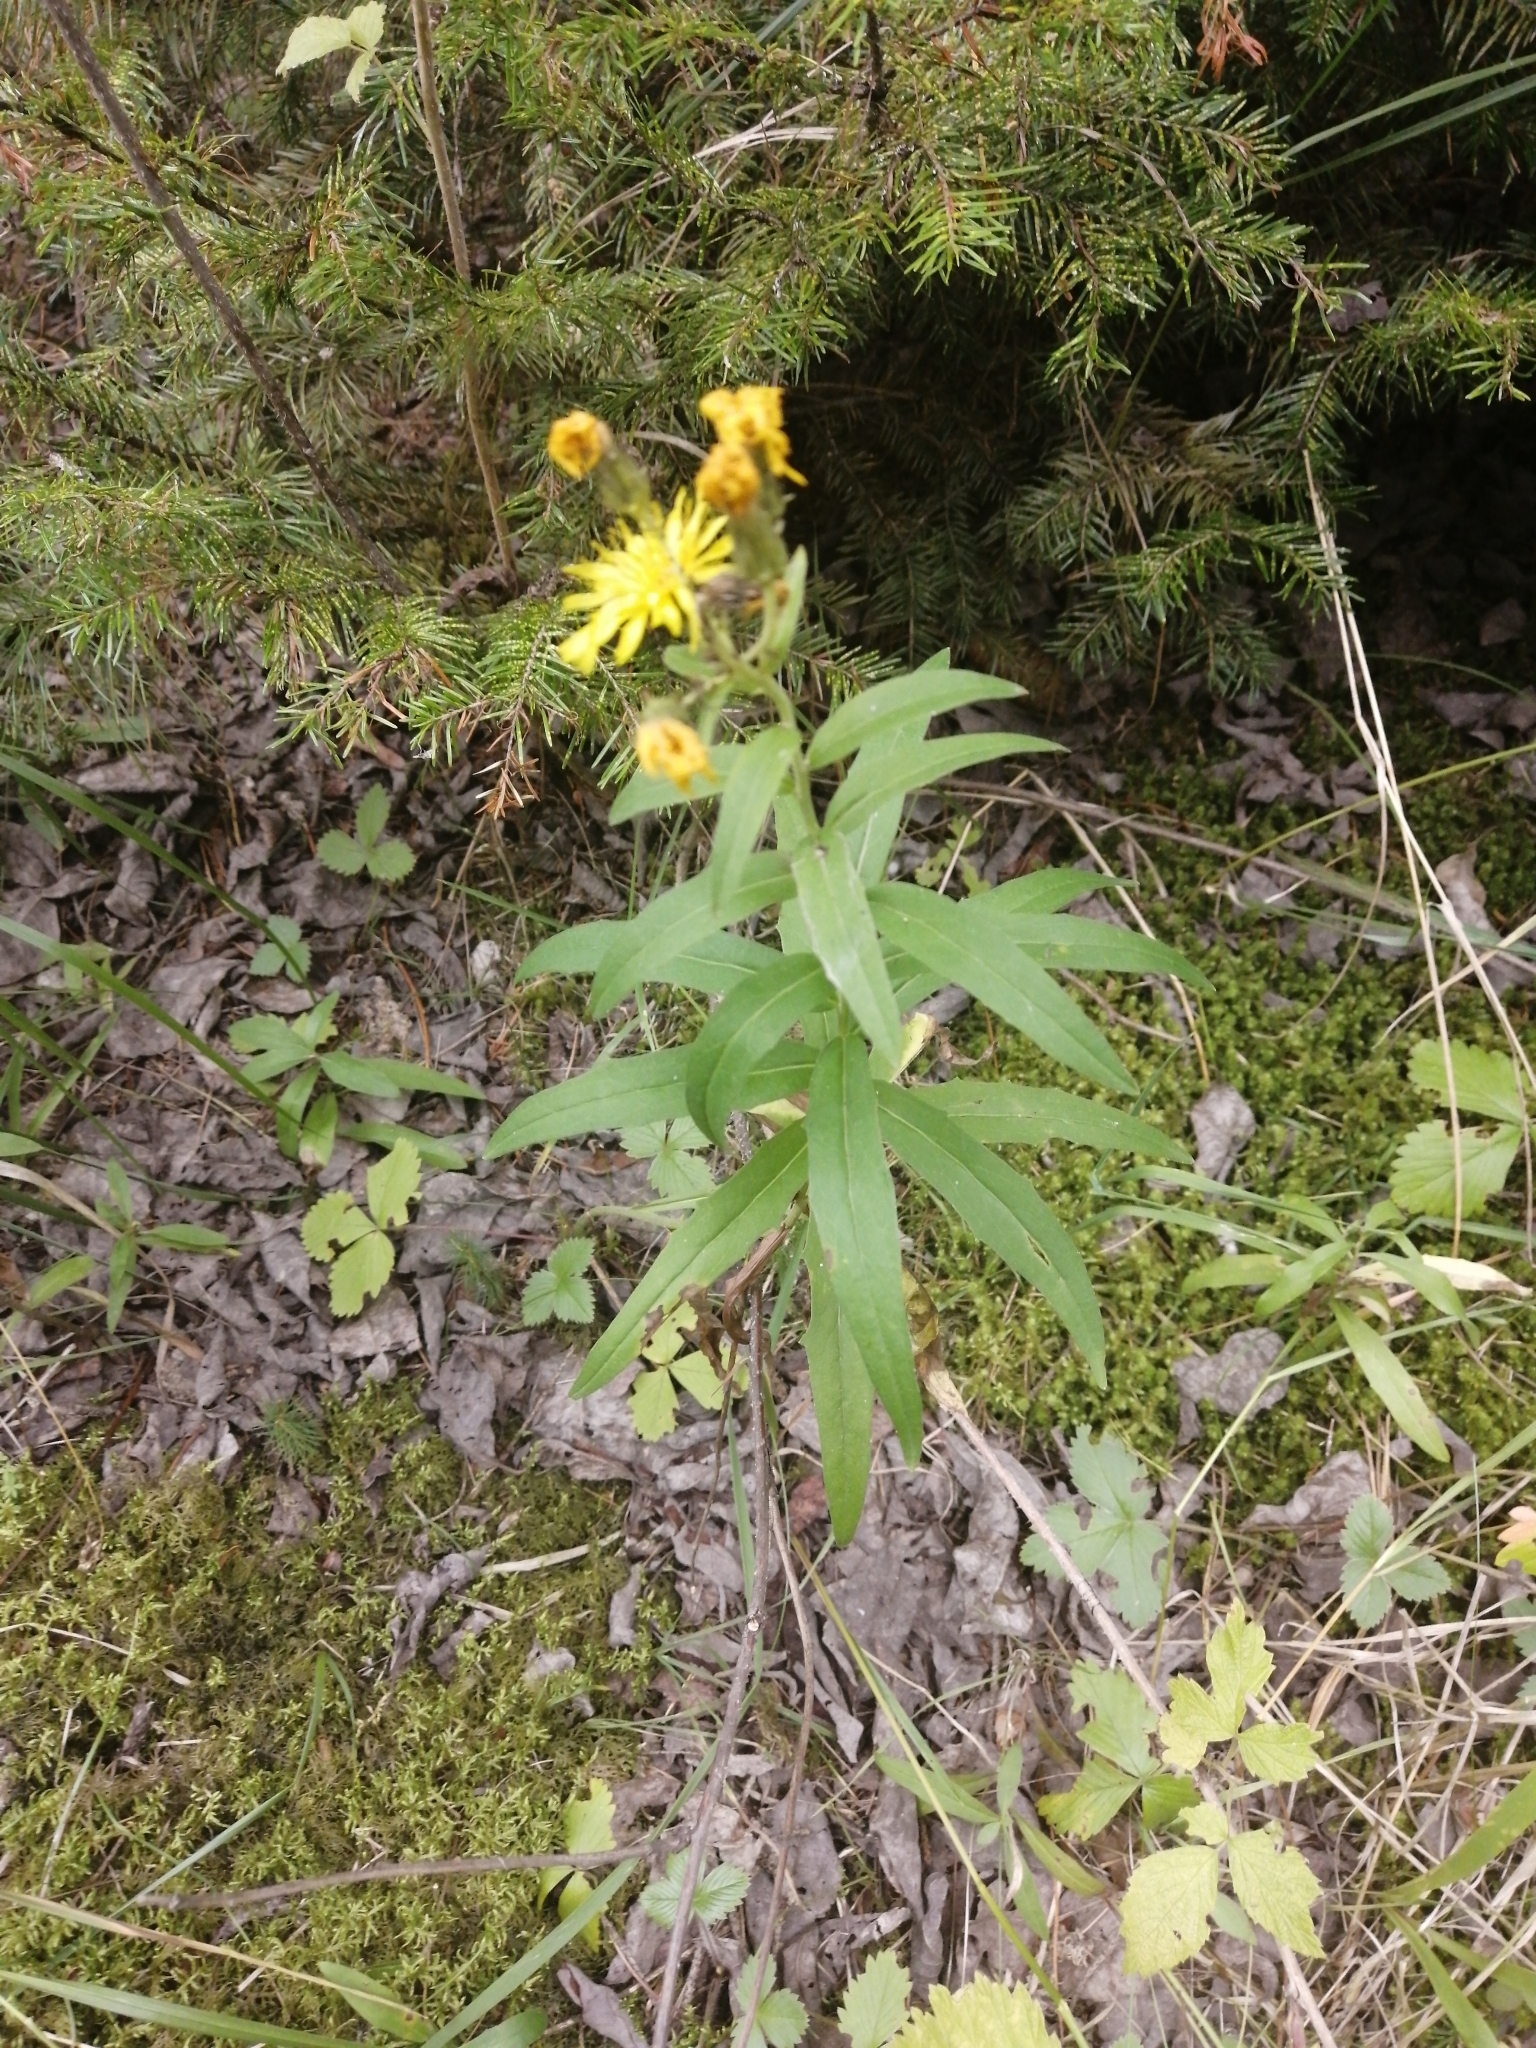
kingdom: Plantae
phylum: Tracheophyta
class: Magnoliopsida
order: Asterales
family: Asteraceae
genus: Hieracium
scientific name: Hieracium umbellatum
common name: Northern hawkweed
